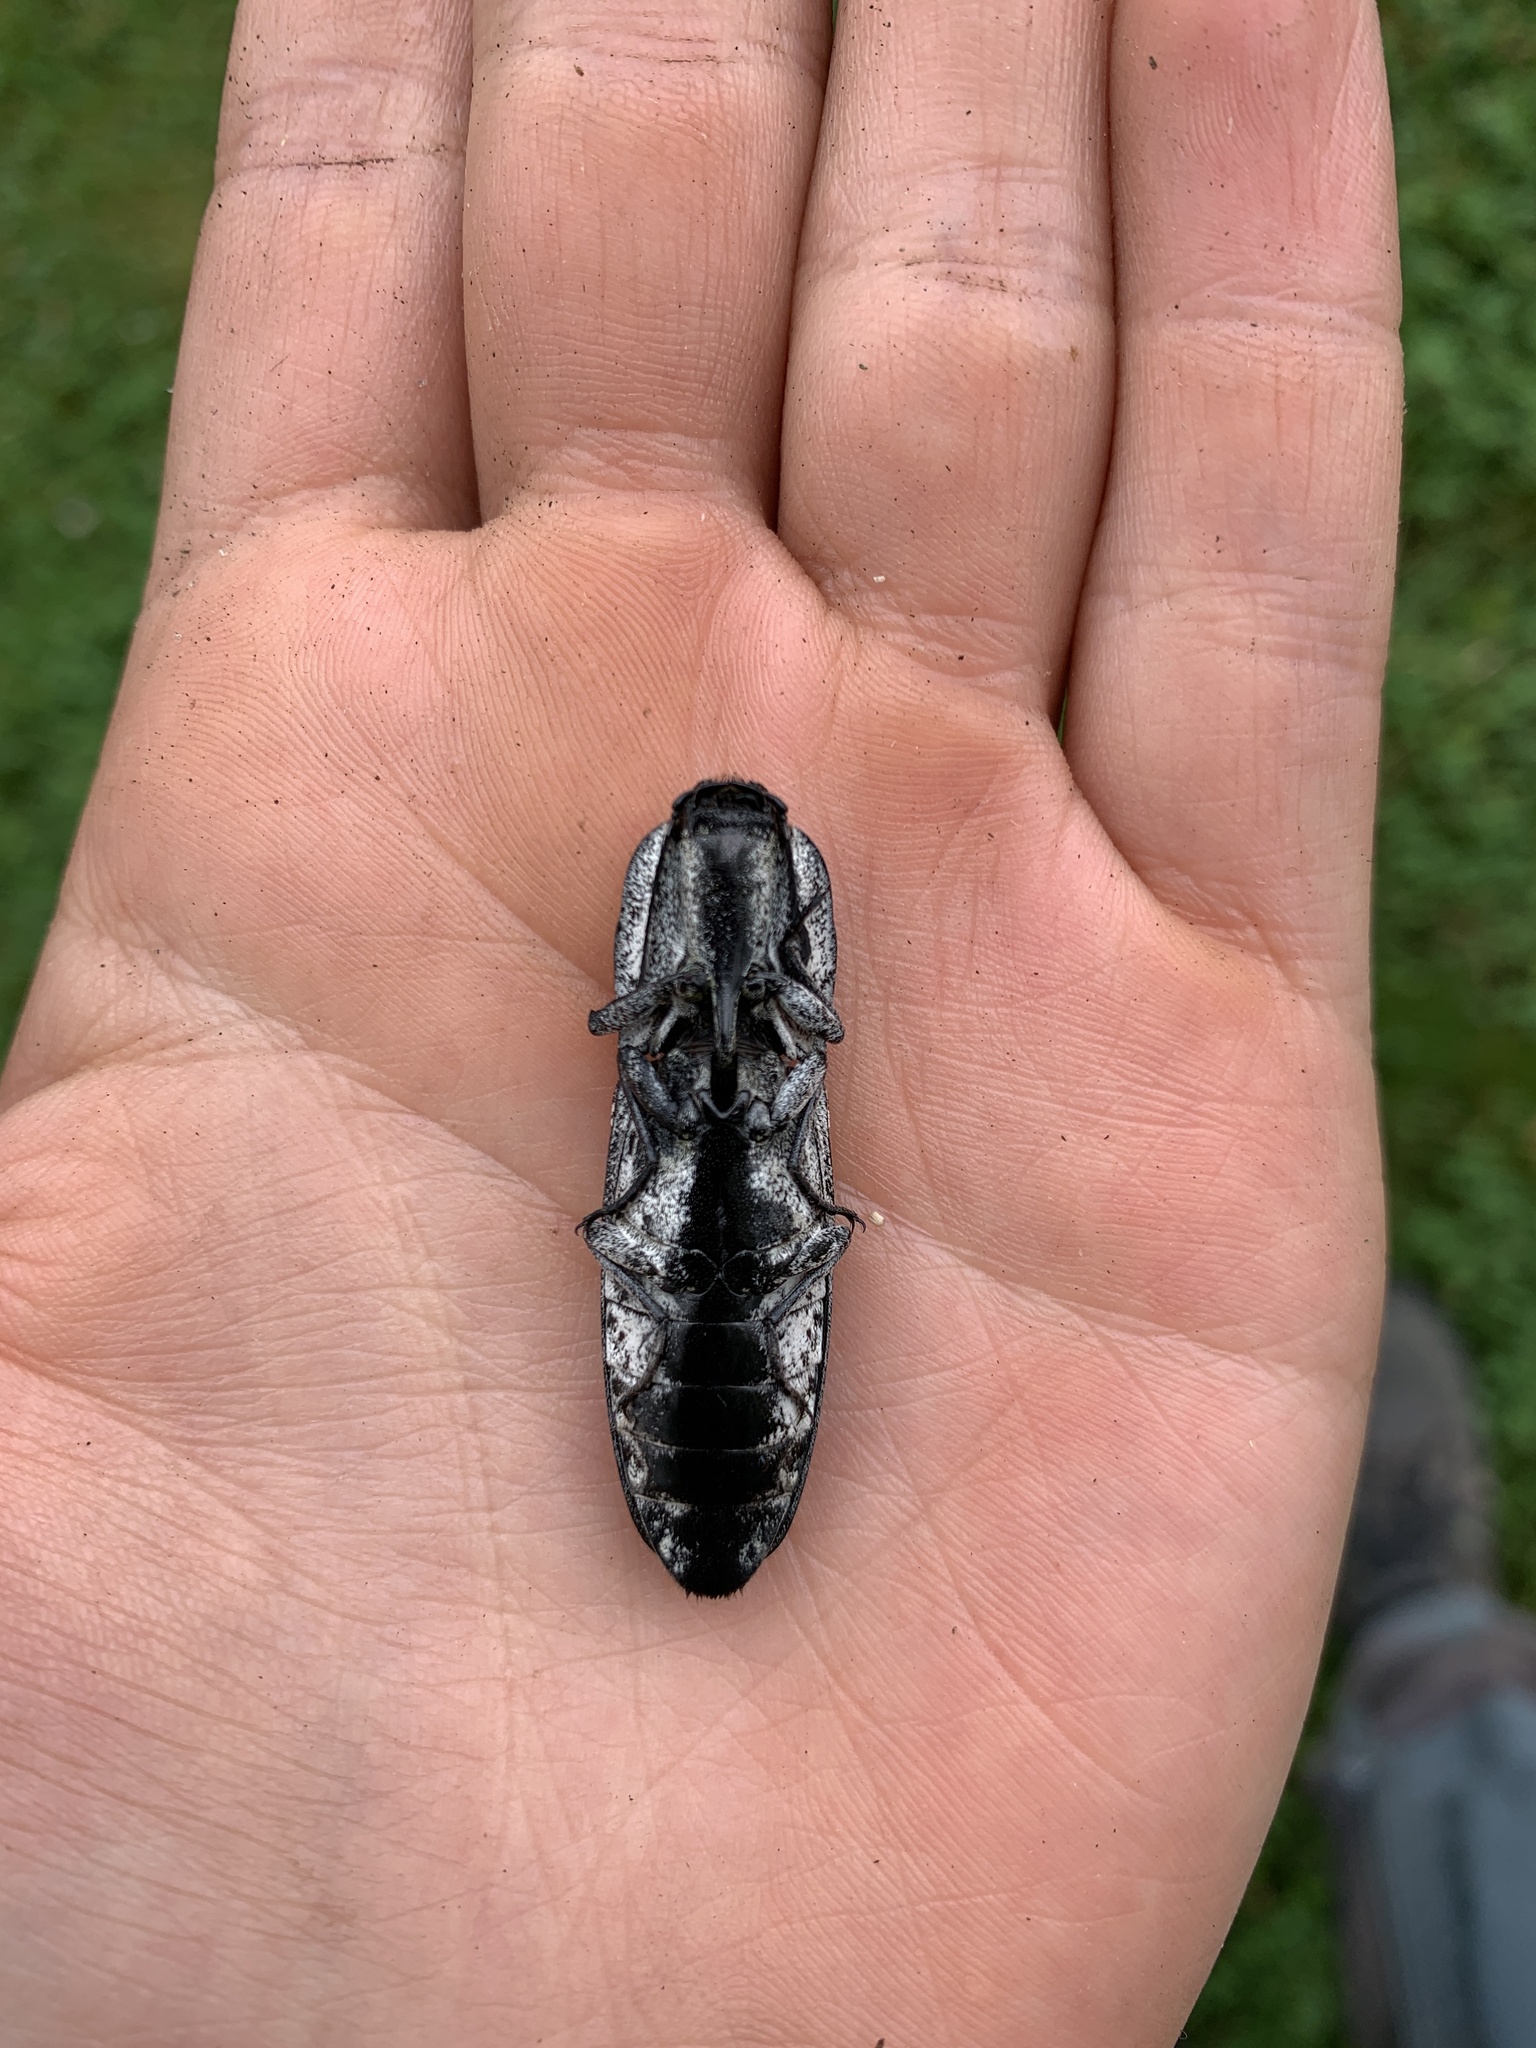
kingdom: Animalia
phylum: Arthropoda
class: Insecta
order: Coleoptera
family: Elateridae
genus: Alaus
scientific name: Alaus oculatus
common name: Eastern eyed click beetle
